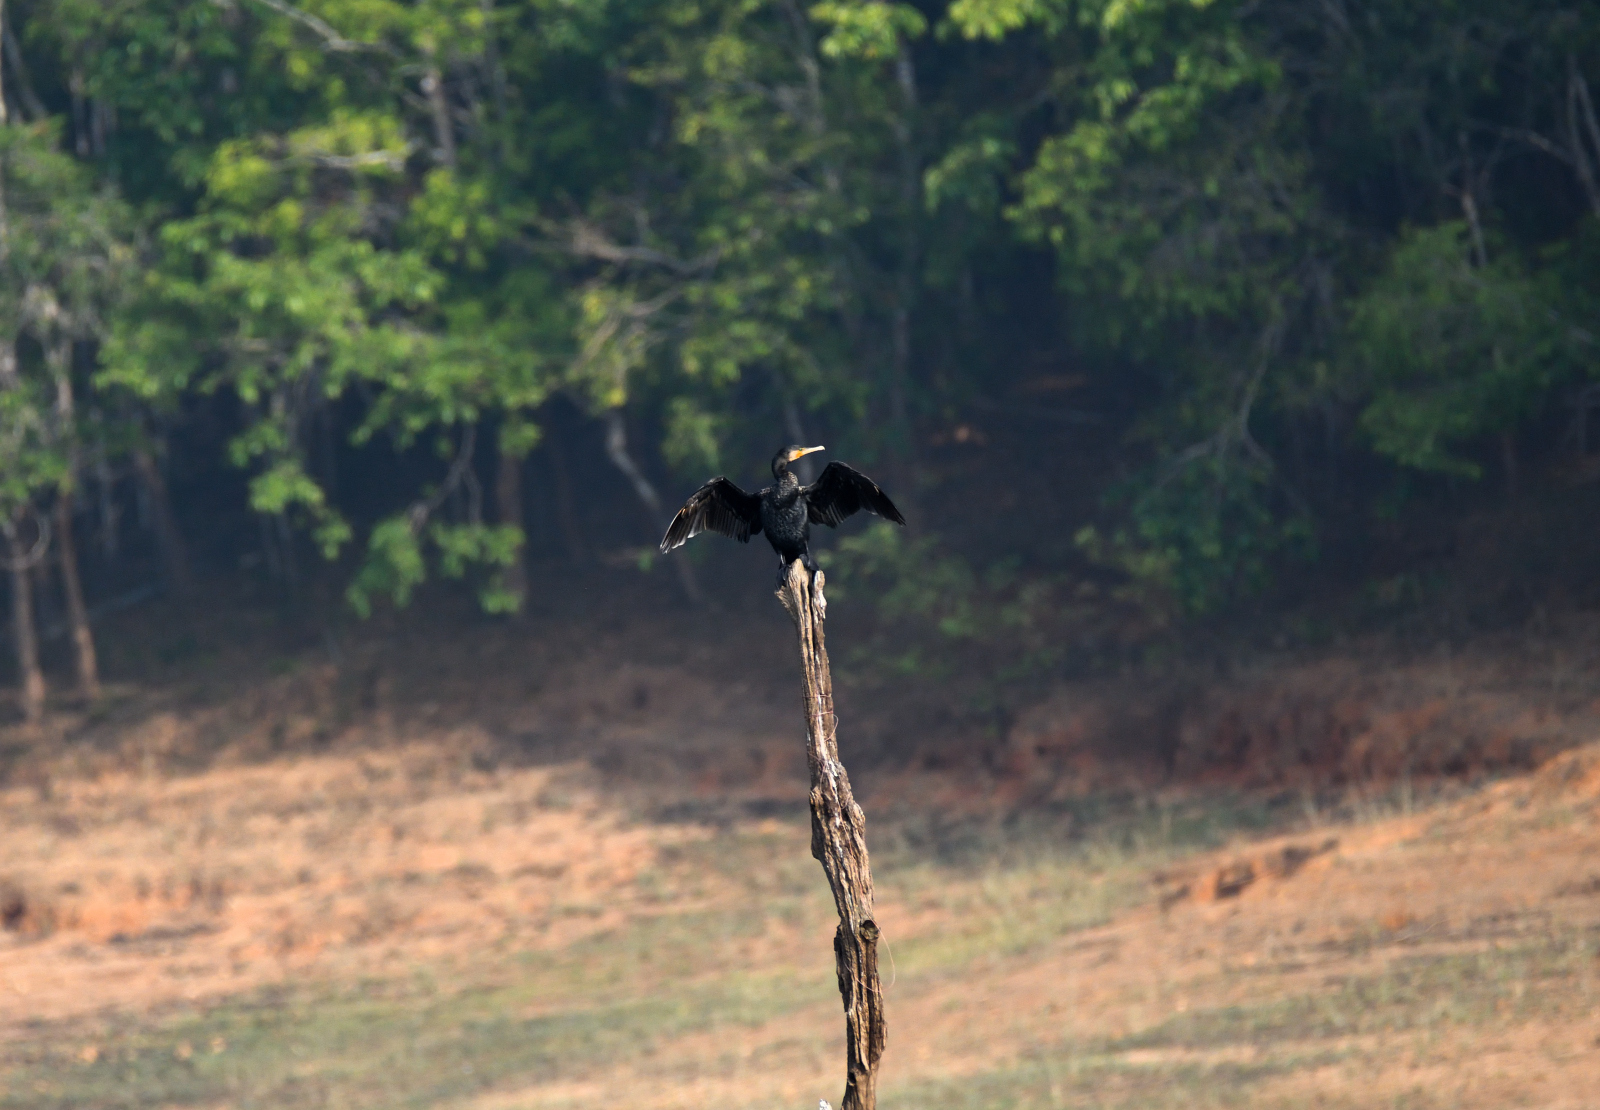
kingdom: Animalia
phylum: Chordata
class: Aves
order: Suliformes
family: Phalacrocoracidae
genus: Phalacrocorax
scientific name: Phalacrocorax carbo
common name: Great cormorant
